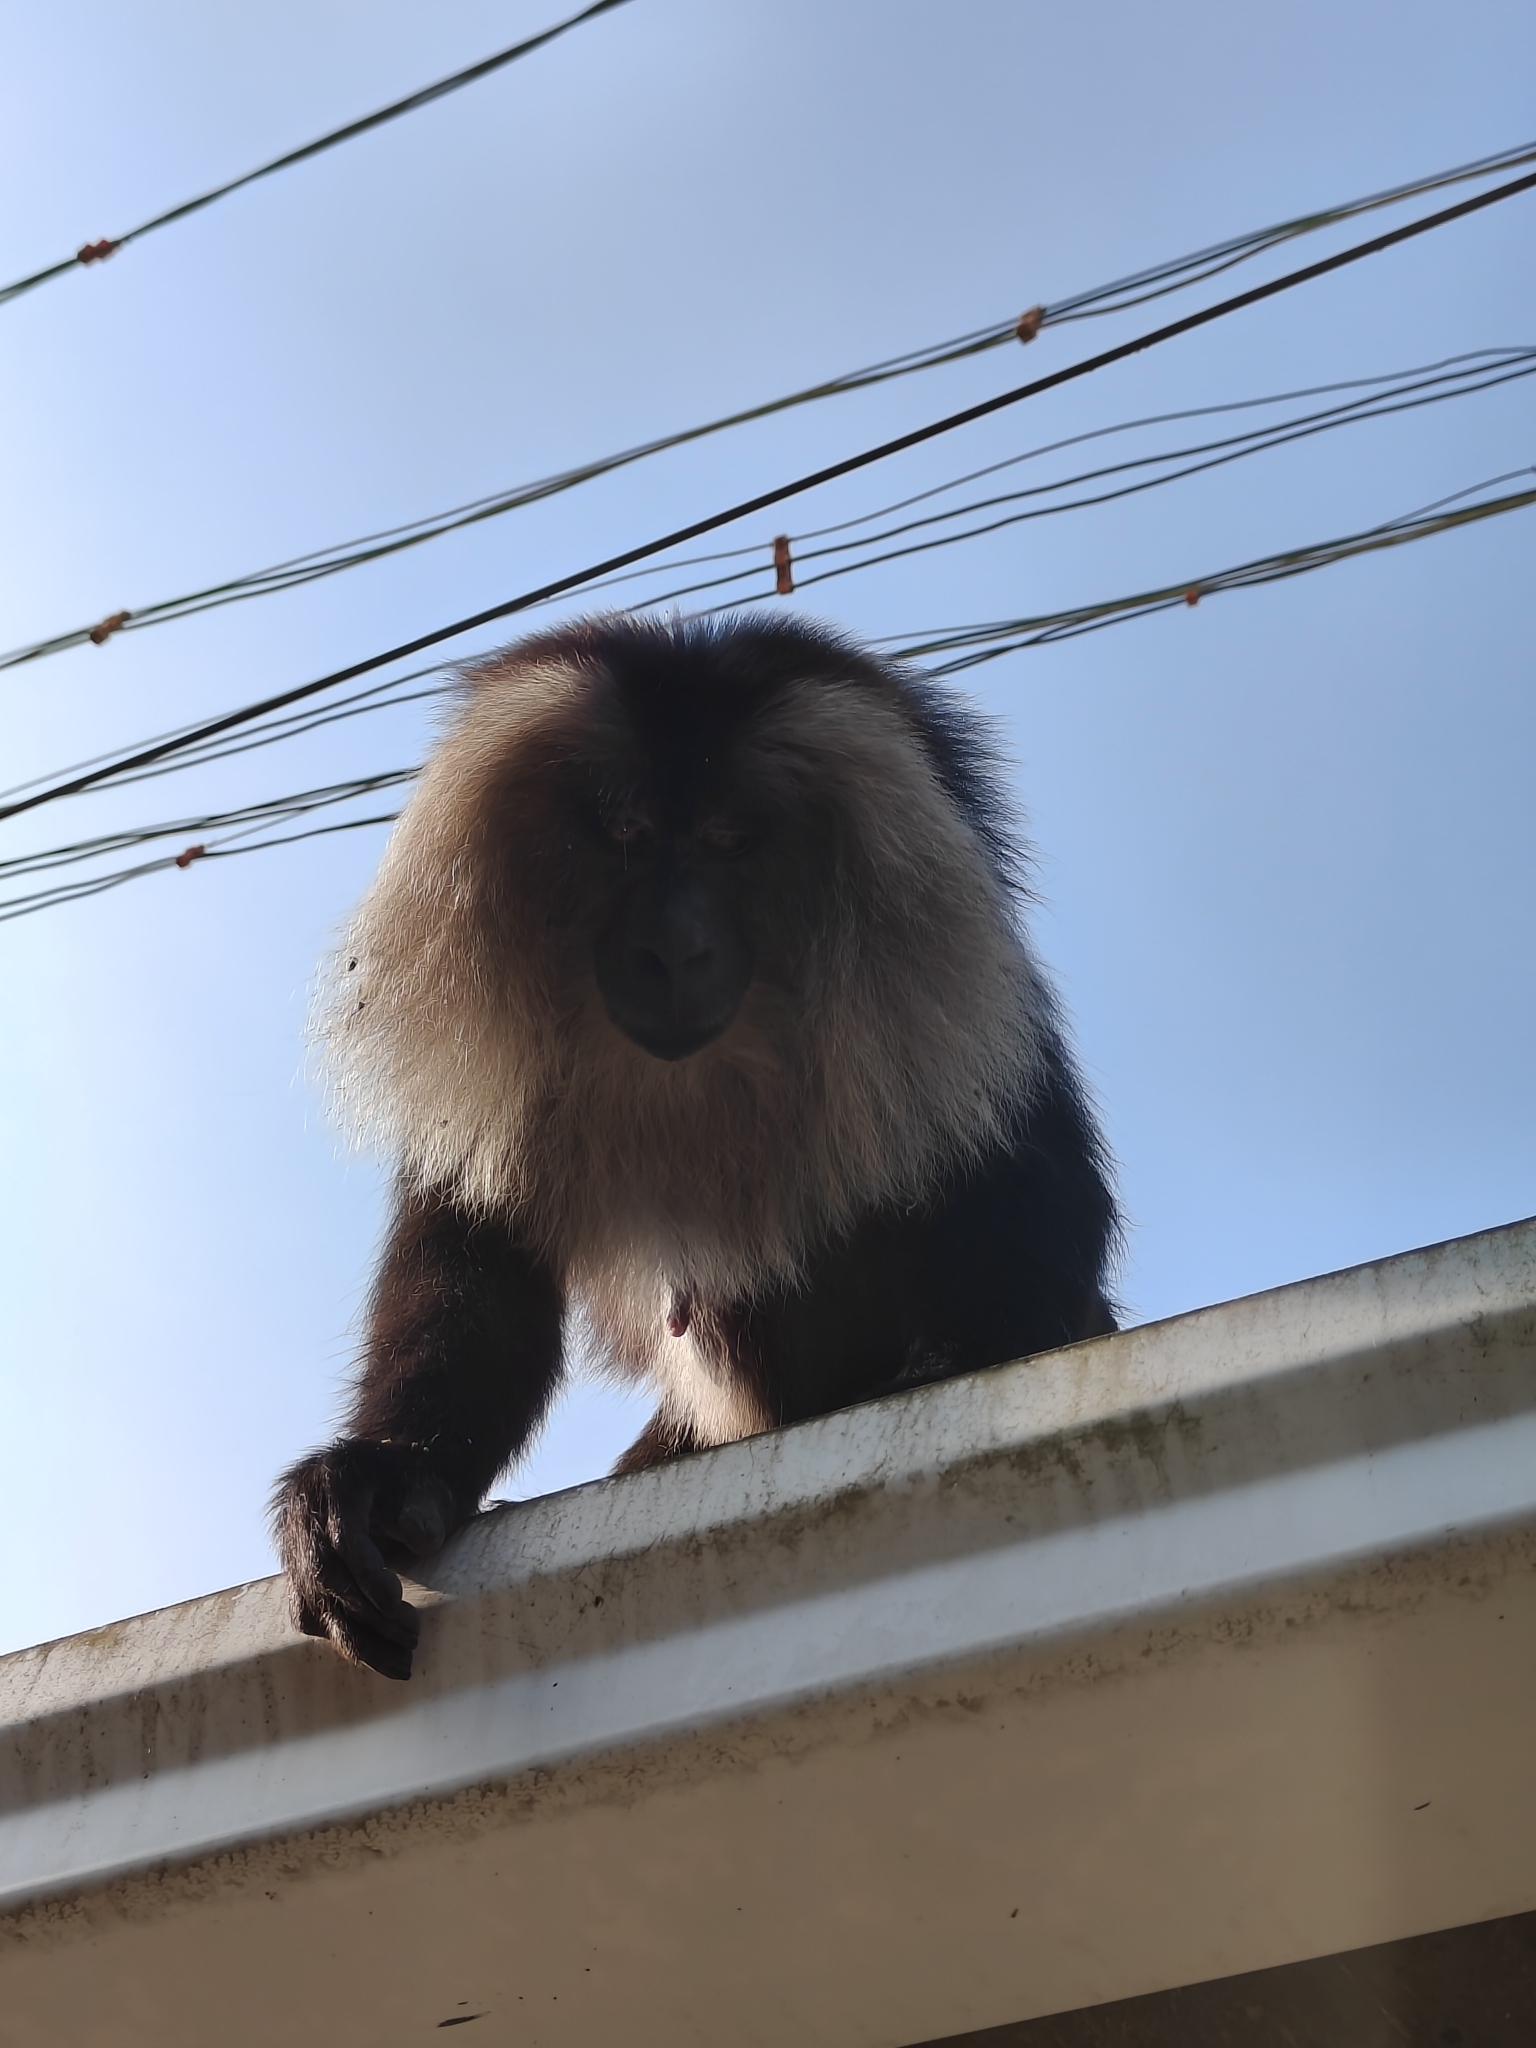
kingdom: Animalia
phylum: Chordata
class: Mammalia
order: Primates
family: Cercopithecidae
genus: Macaca
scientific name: Macaca silenus
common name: Lion-tailed macaque
